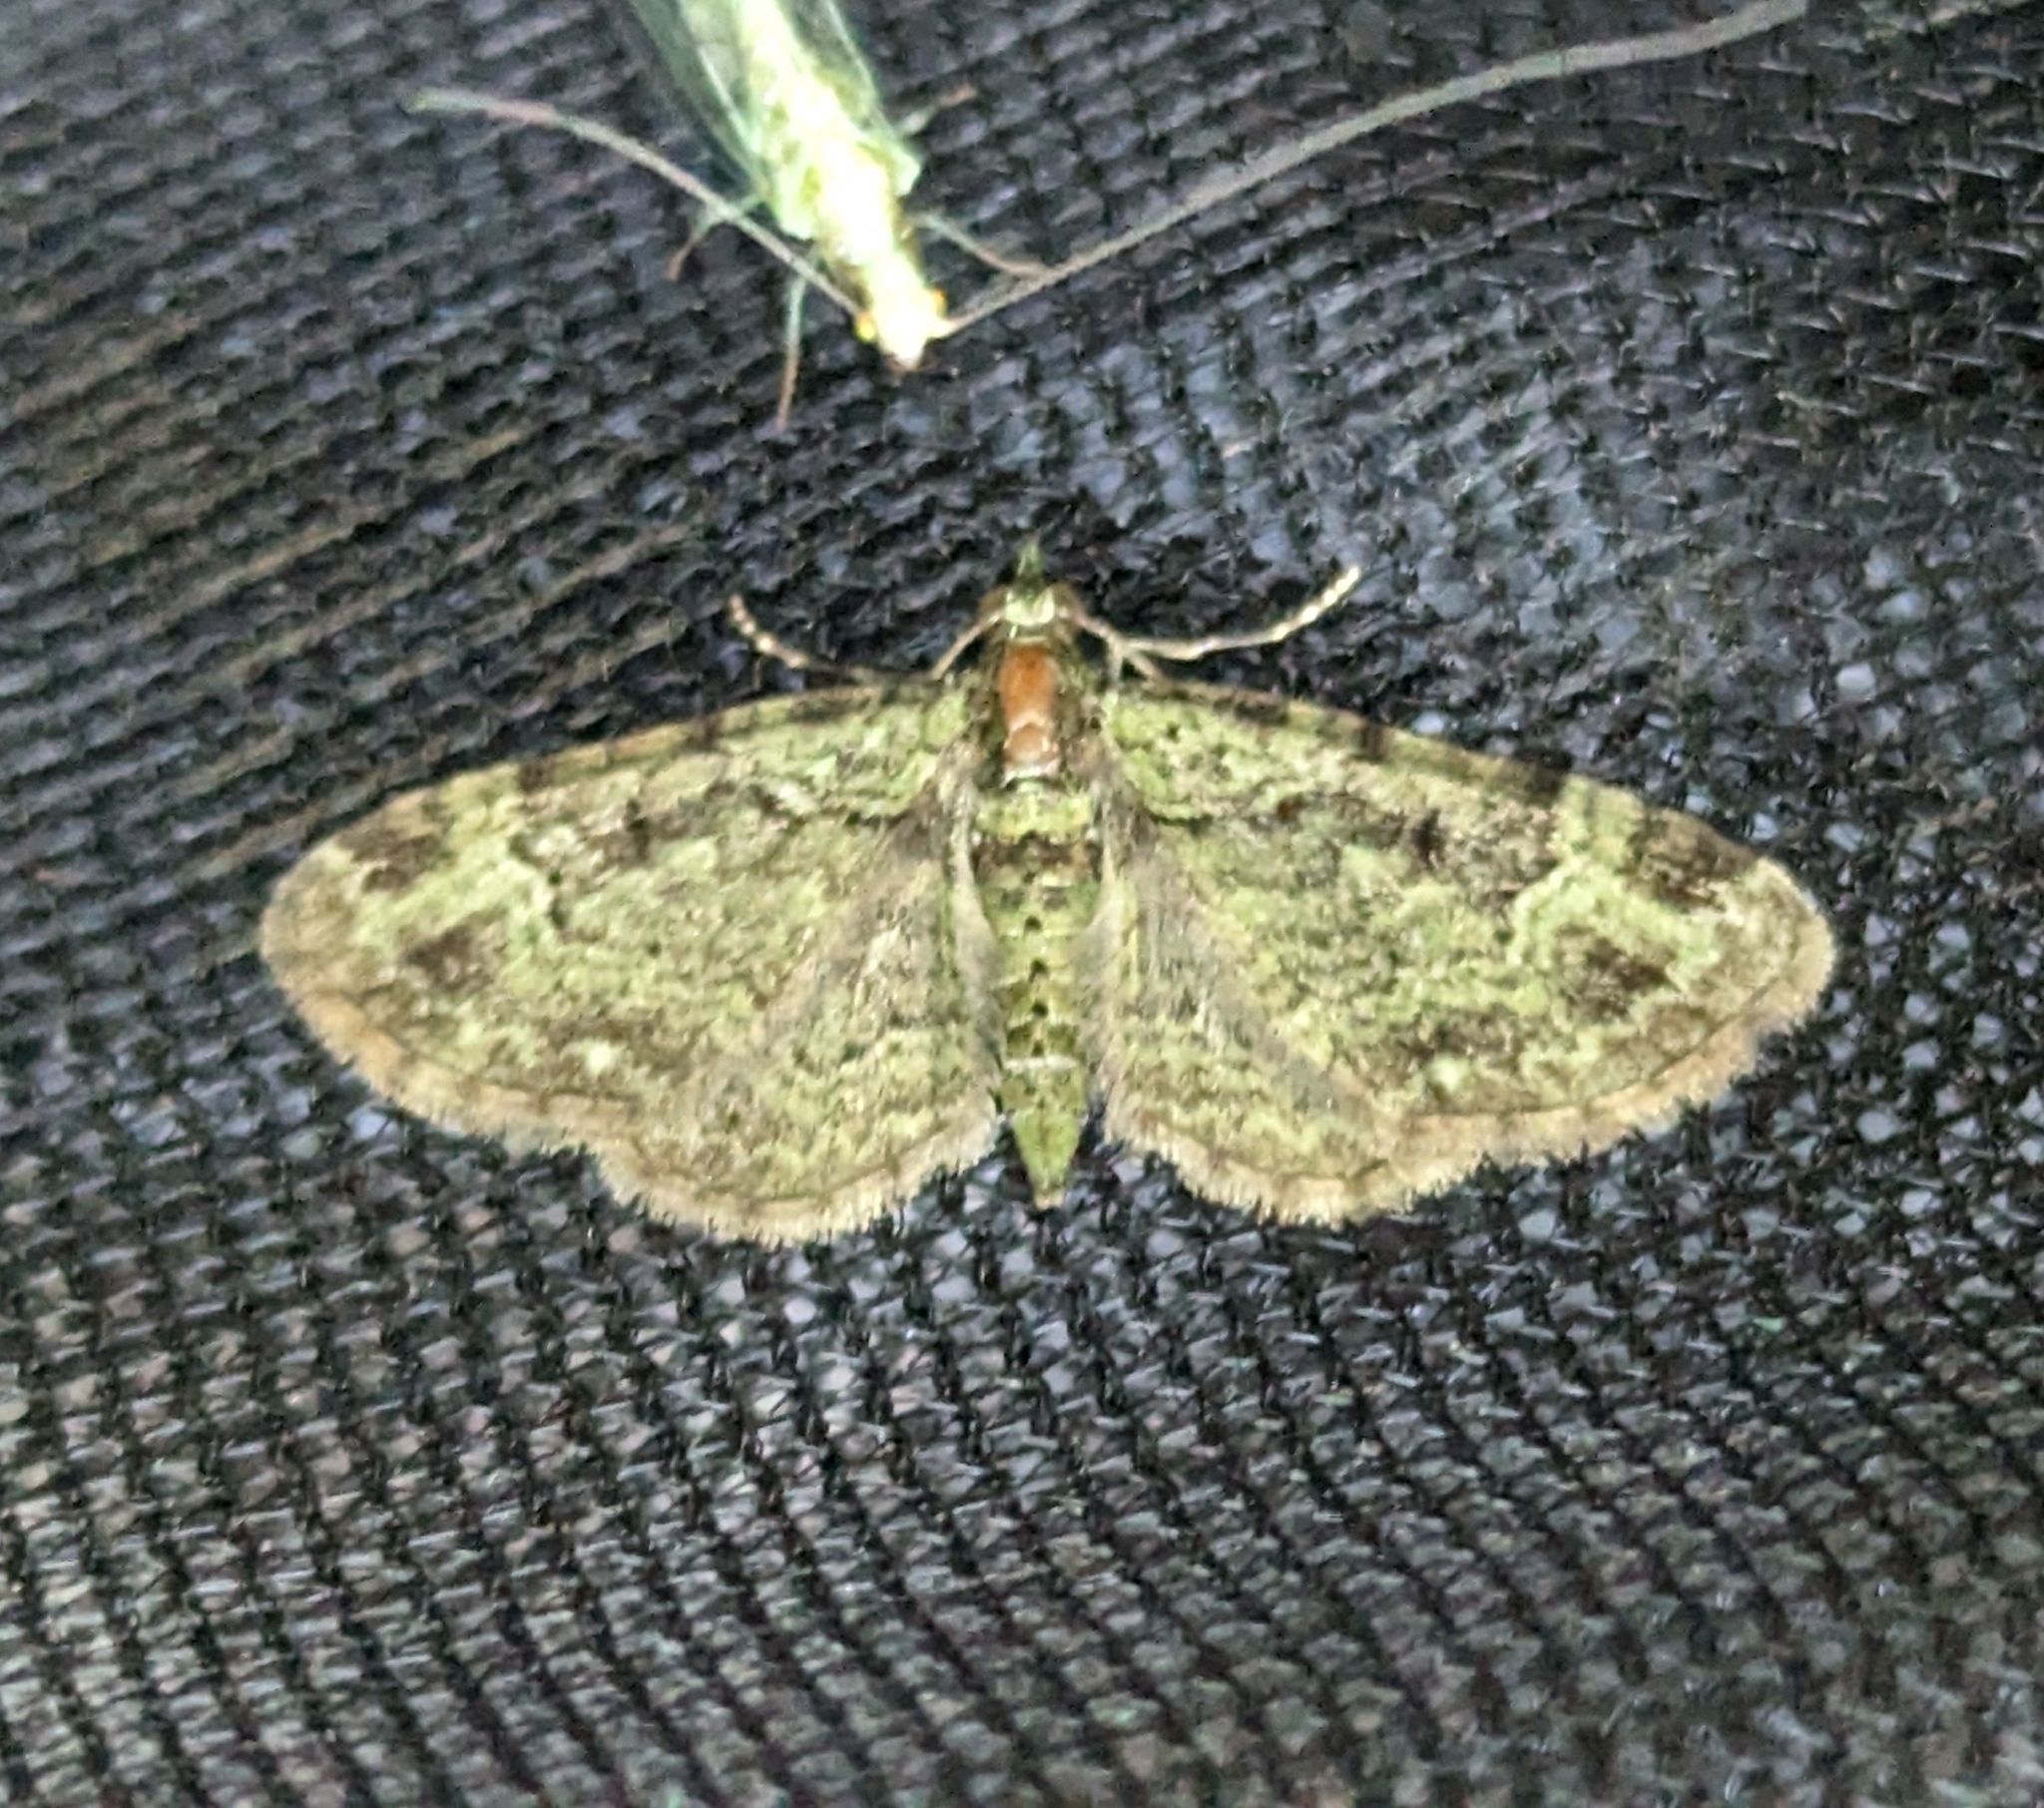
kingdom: Animalia
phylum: Arthropoda
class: Insecta
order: Lepidoptera
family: Geometridae
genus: Pasiphila
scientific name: Pasiphila rectangulata
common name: Green pug
